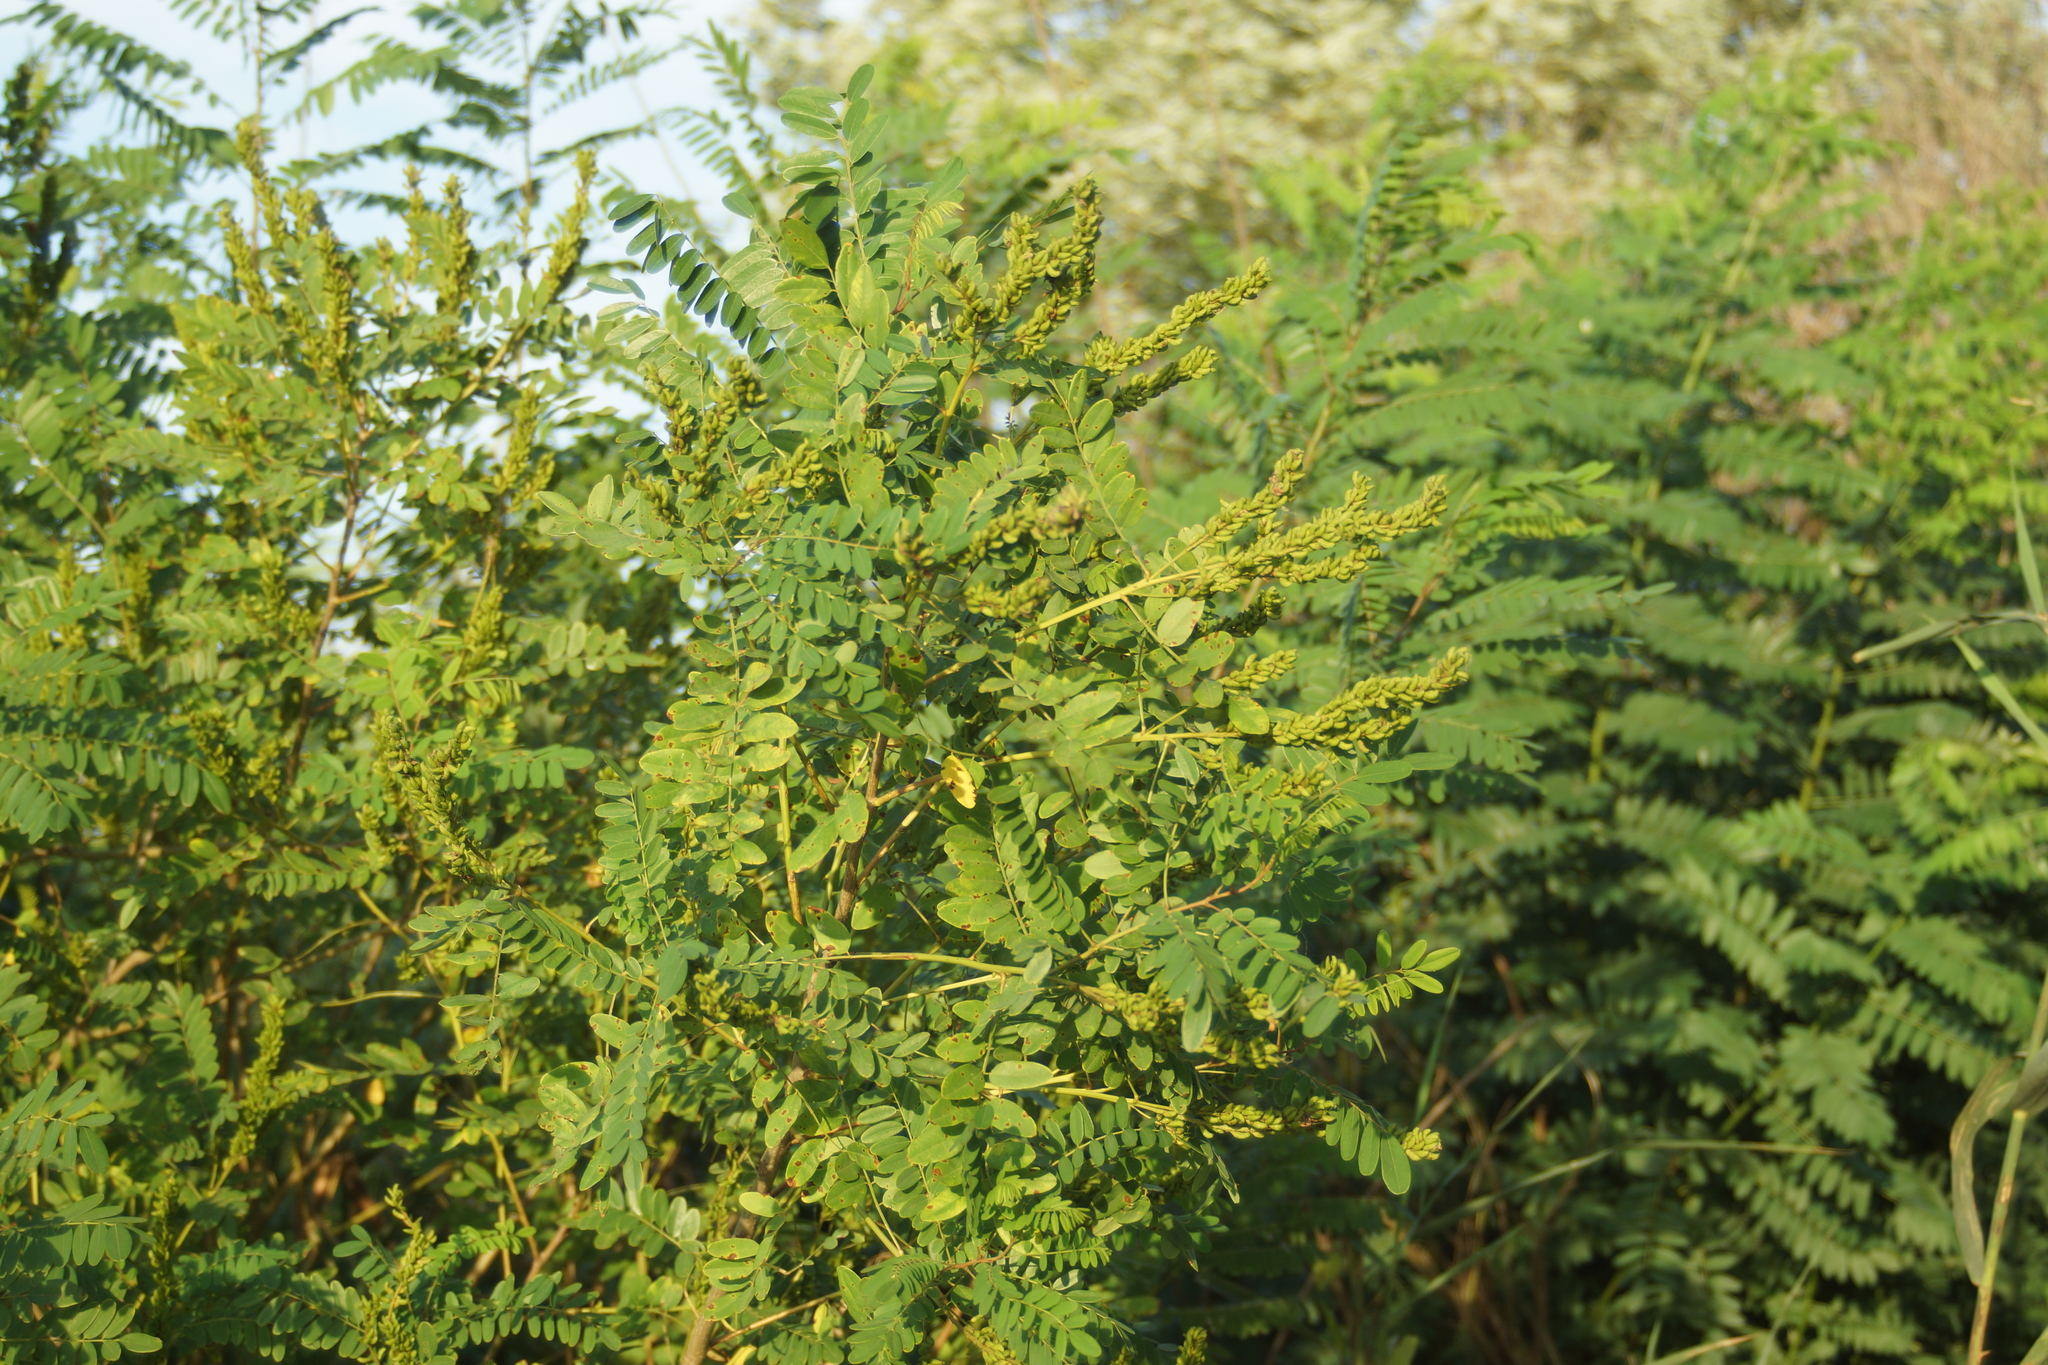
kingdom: Plantae
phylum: Tracheophyta
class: Magnoliopsida
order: Fabales
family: Fabaceae
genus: Amorpha
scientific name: Amorpha fruticosa
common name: False indigo
